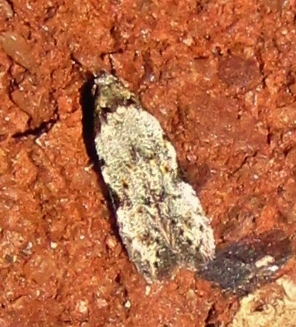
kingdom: Animalia
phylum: Arthropoda
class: Insecta
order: Lepidoptera
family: Autostichidae
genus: Taygete
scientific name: Taygete attributella
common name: Triangle-marked twirler moth
